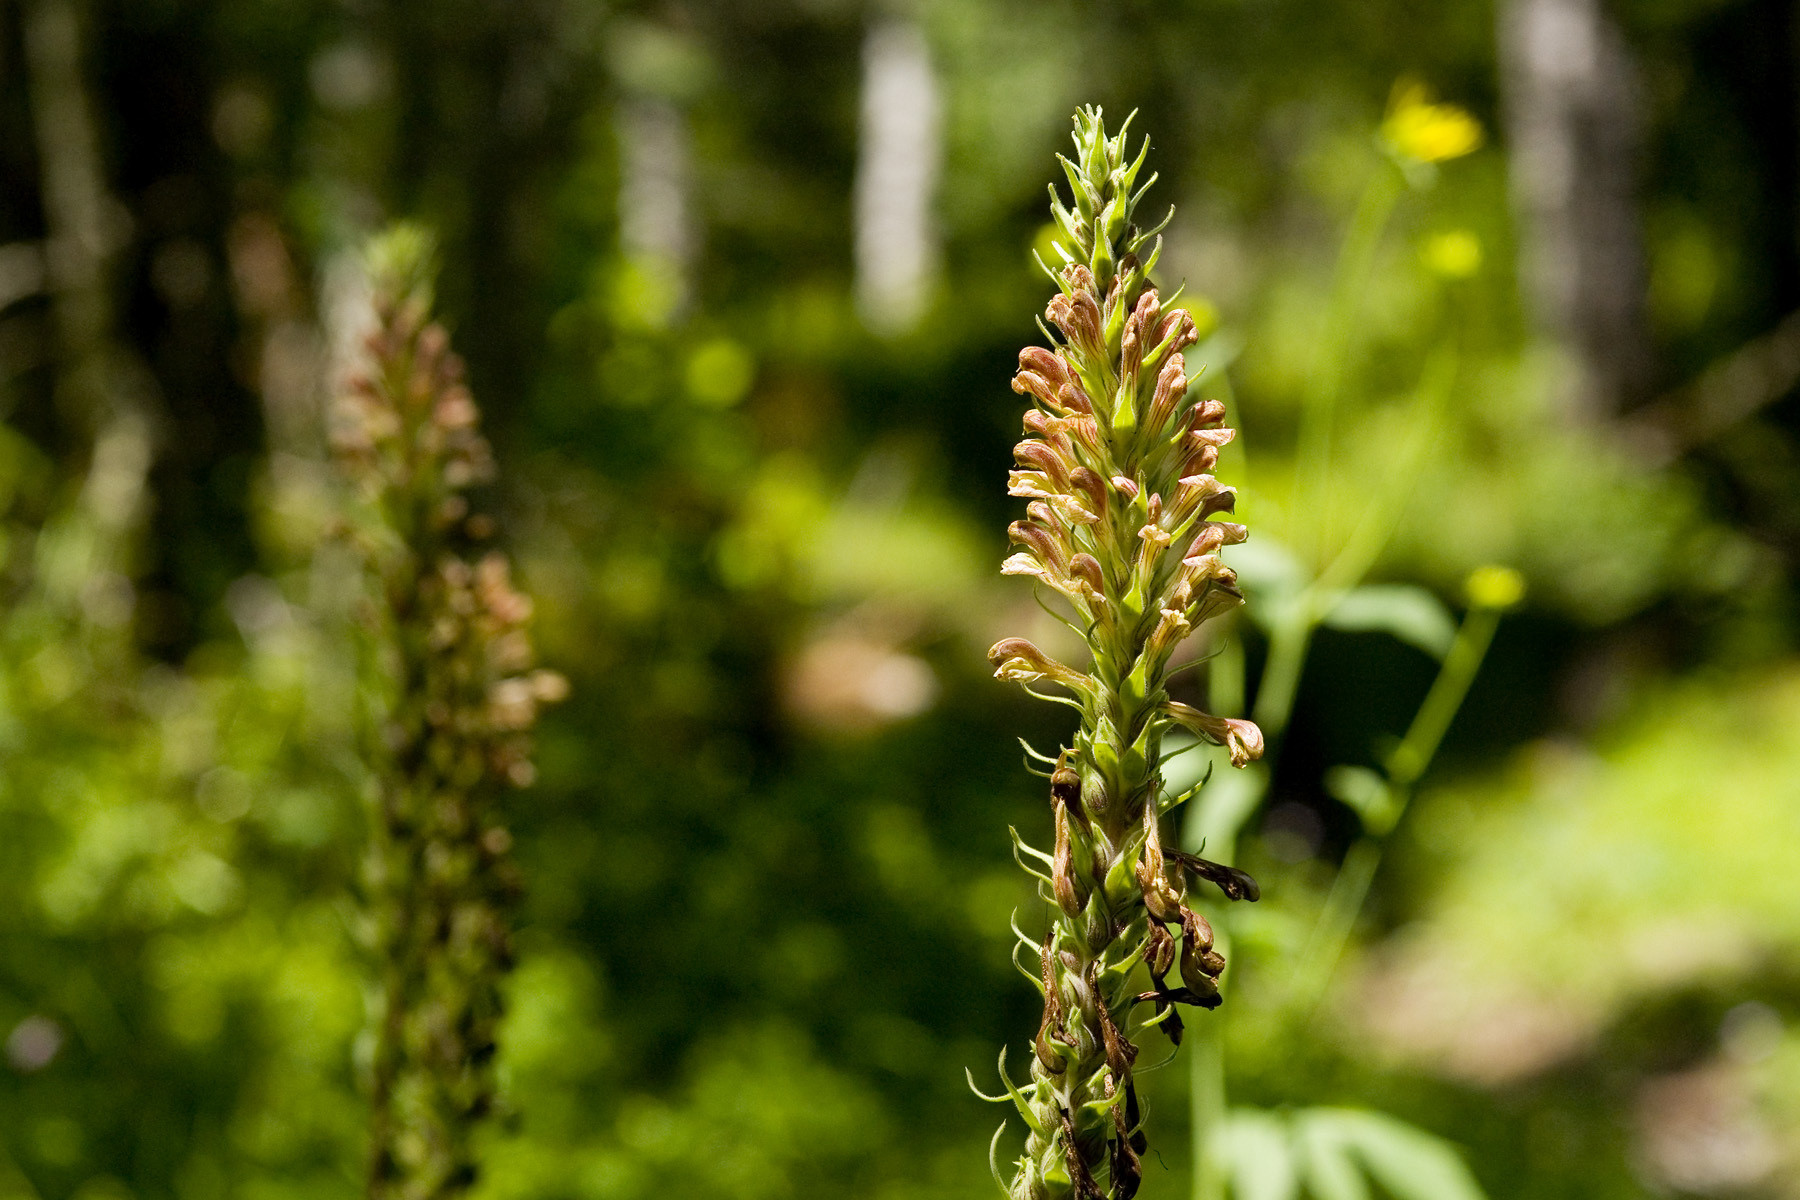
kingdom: Plantae
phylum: Tracheophyta
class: Magnoliopsida
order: Lamiales
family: Orobanchaceae
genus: Pedicularis
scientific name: Pedicularis procera
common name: Gray's lousewort
